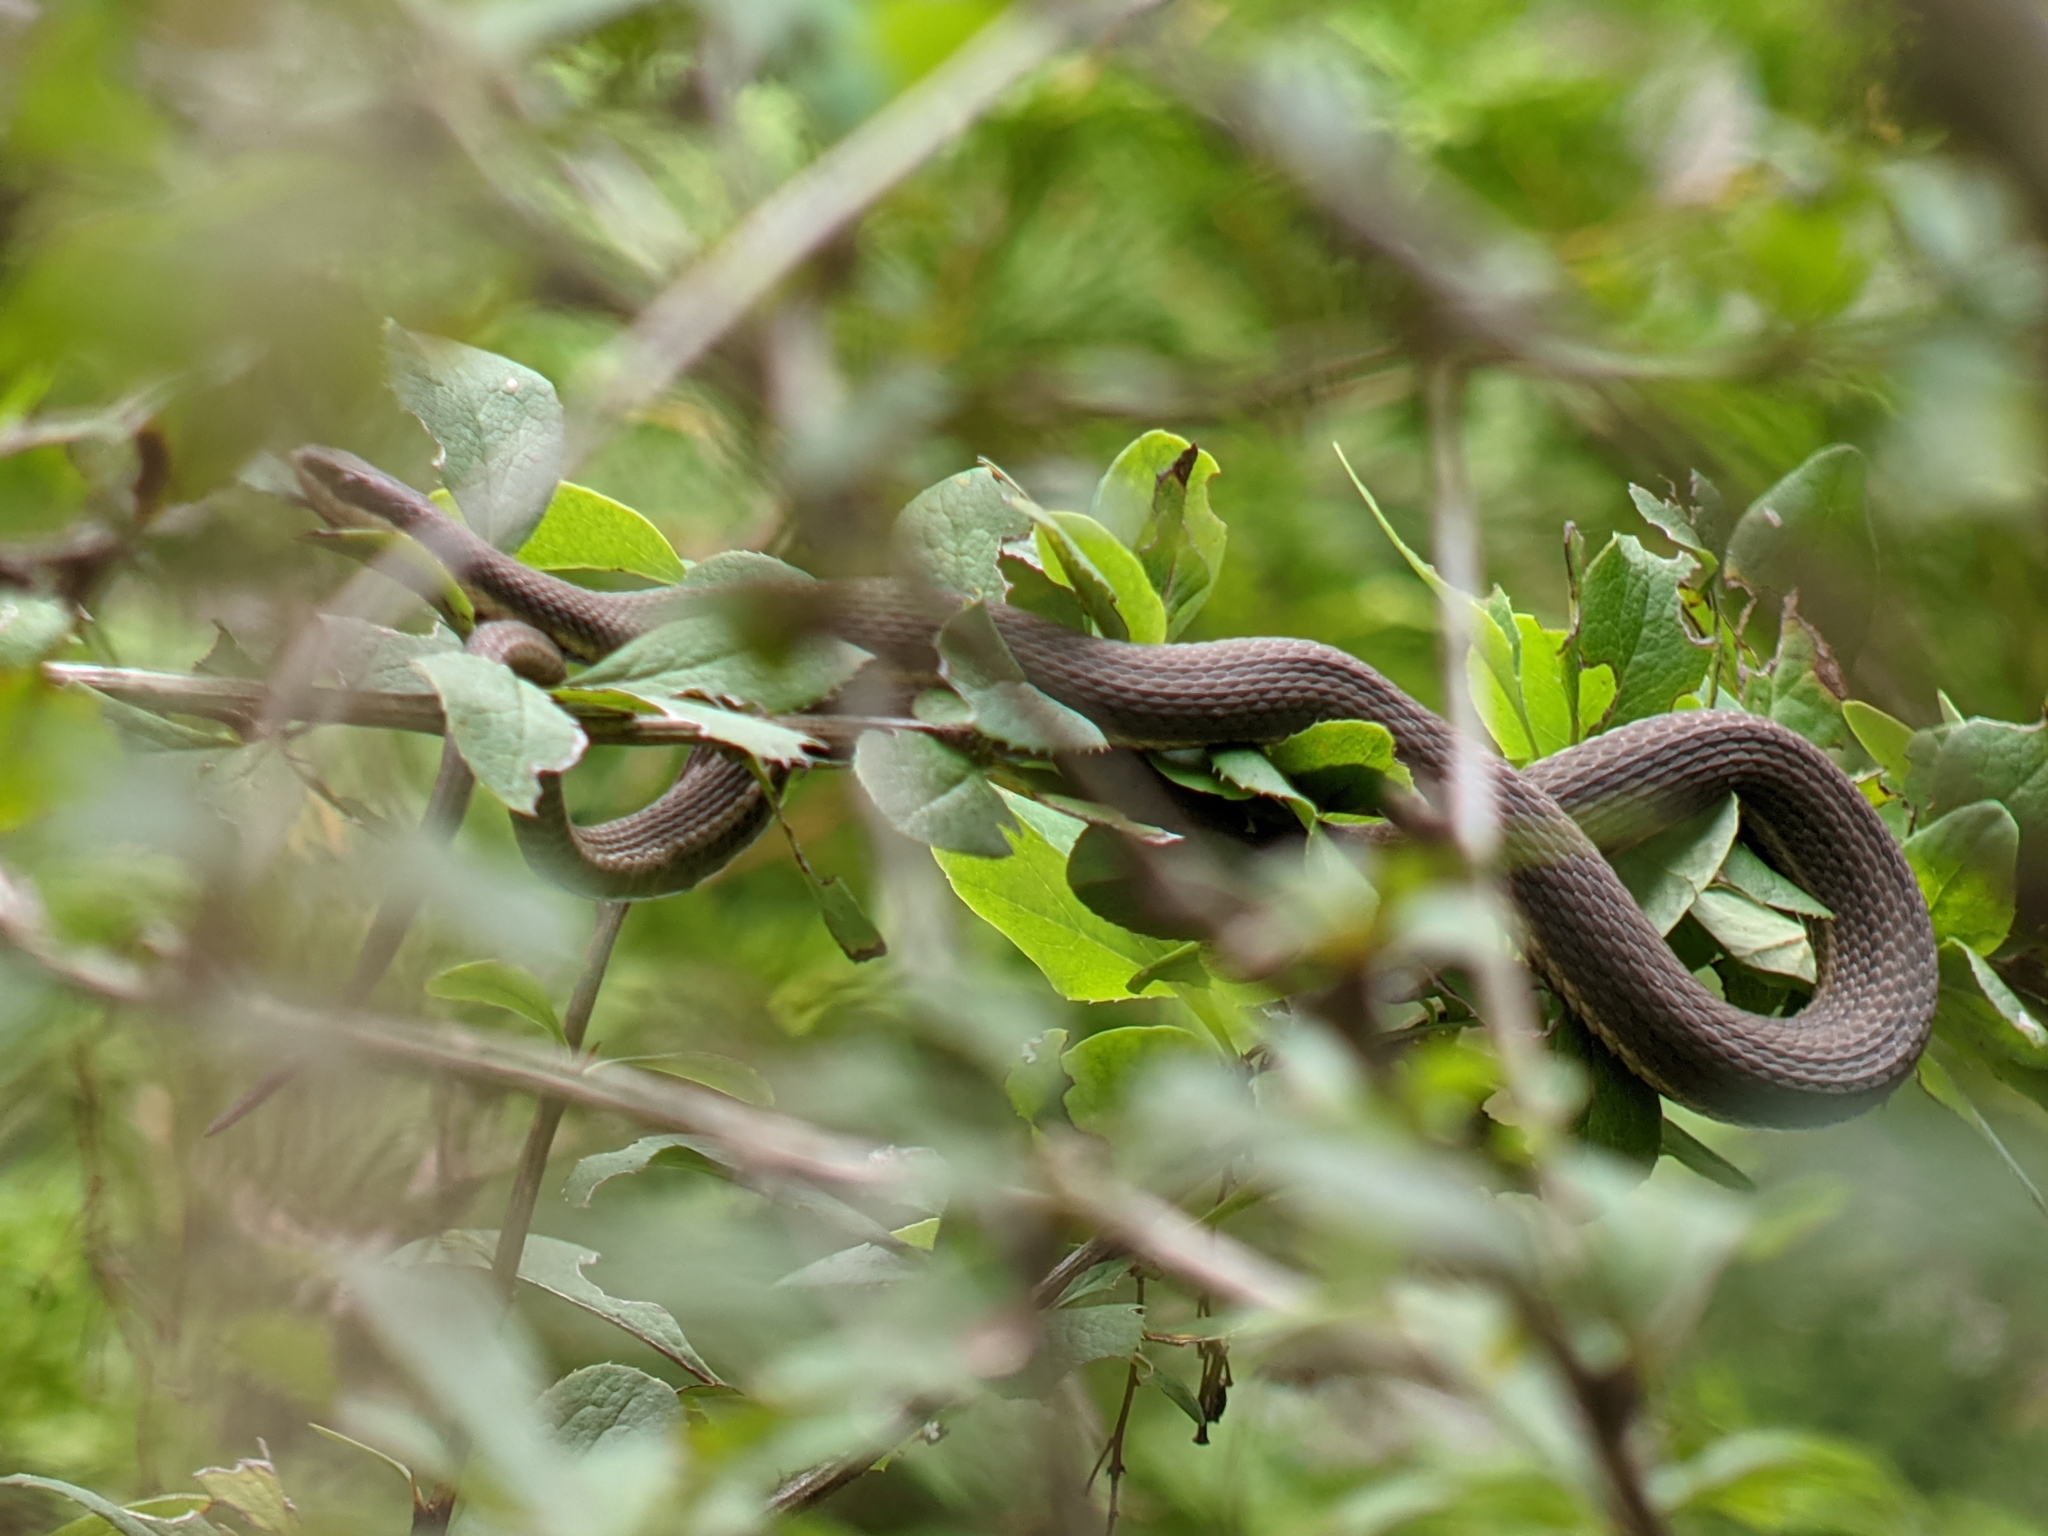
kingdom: Animalia
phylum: Chordata
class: Squamata
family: Colubridae
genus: Regina
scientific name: Regina septemvittata
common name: Queen snake
